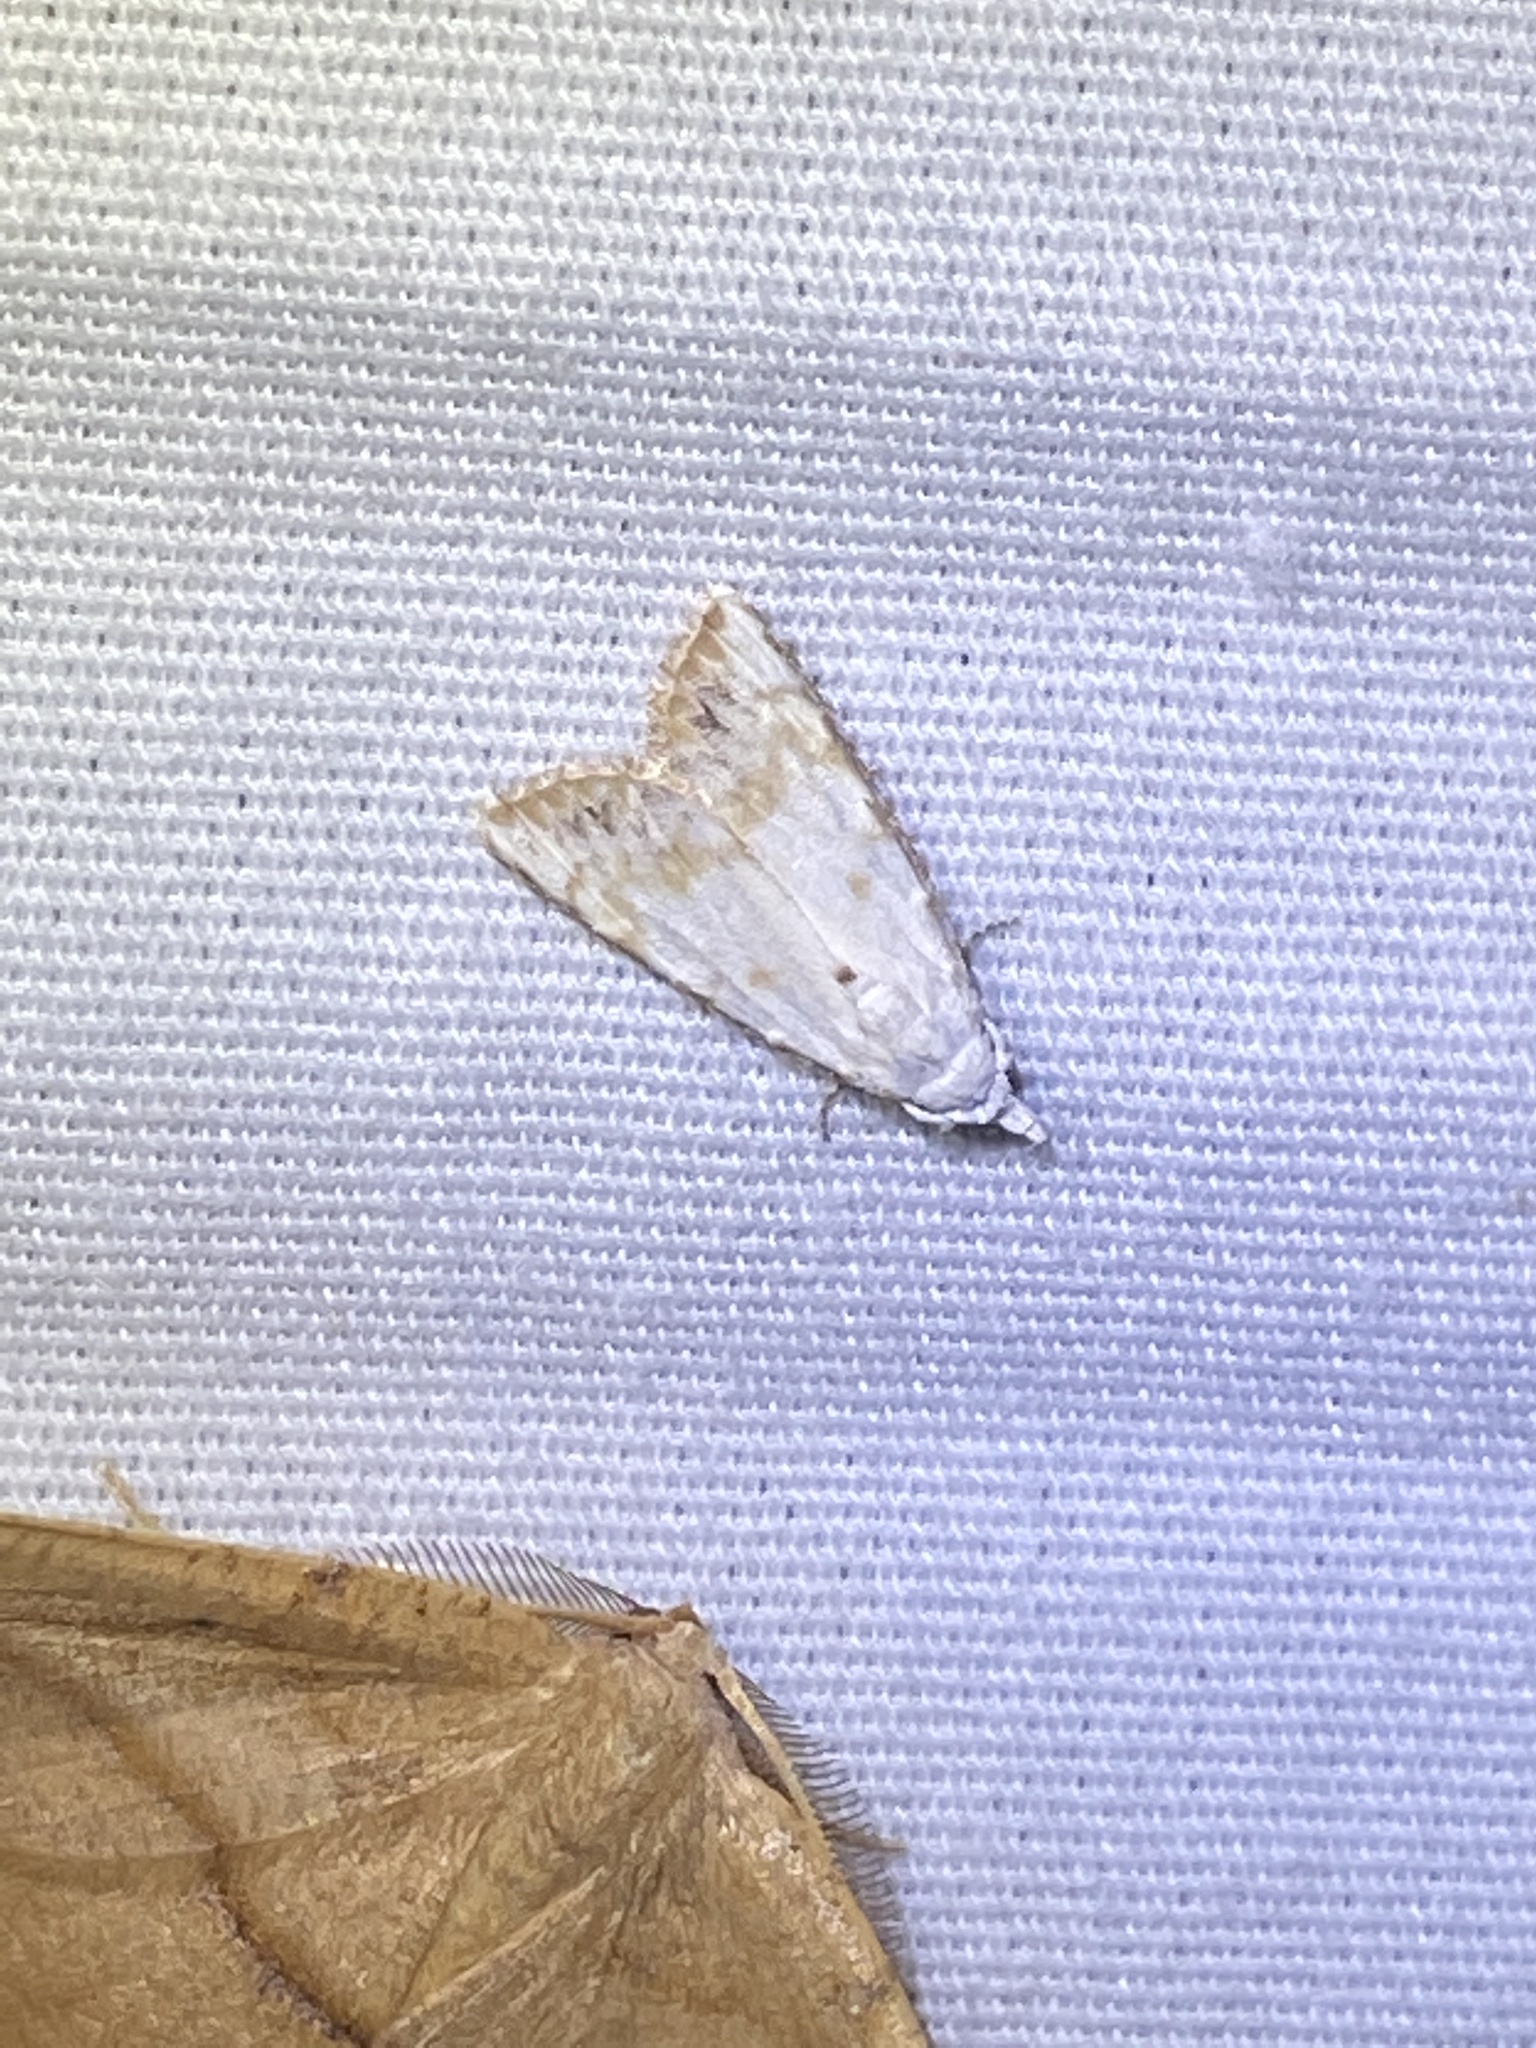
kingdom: Animalia
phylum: Arthropoda
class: Insecta
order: Lepidoptera
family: Nolidae
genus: Nola
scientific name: Nola cereella
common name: Sorghum webworm moth
